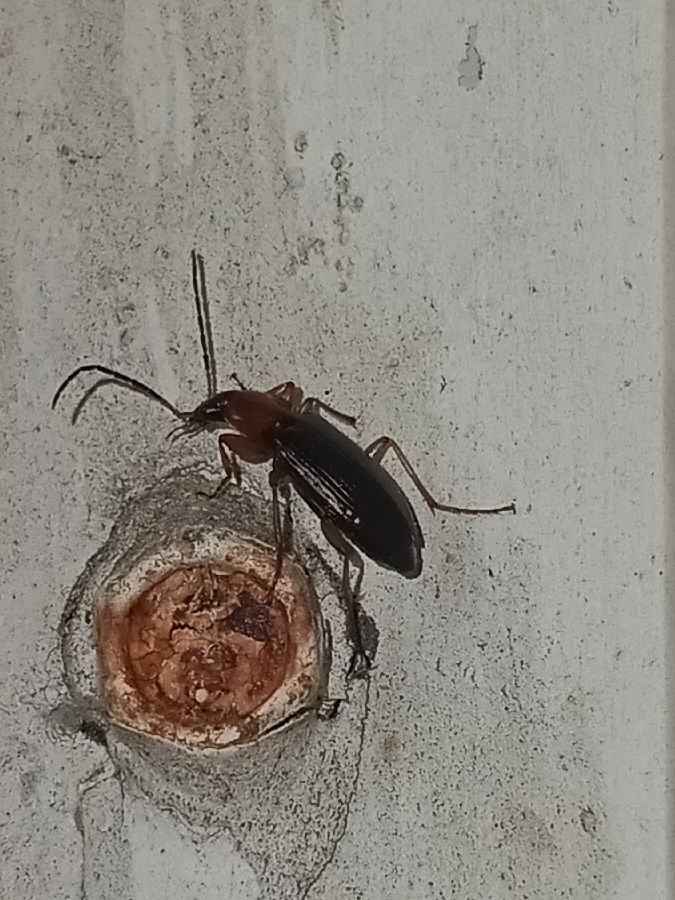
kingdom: Animalia
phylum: Arthropoda
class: Insecta
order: Coleoptera
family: Carabidae
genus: Agonum
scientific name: Agonum decorum
